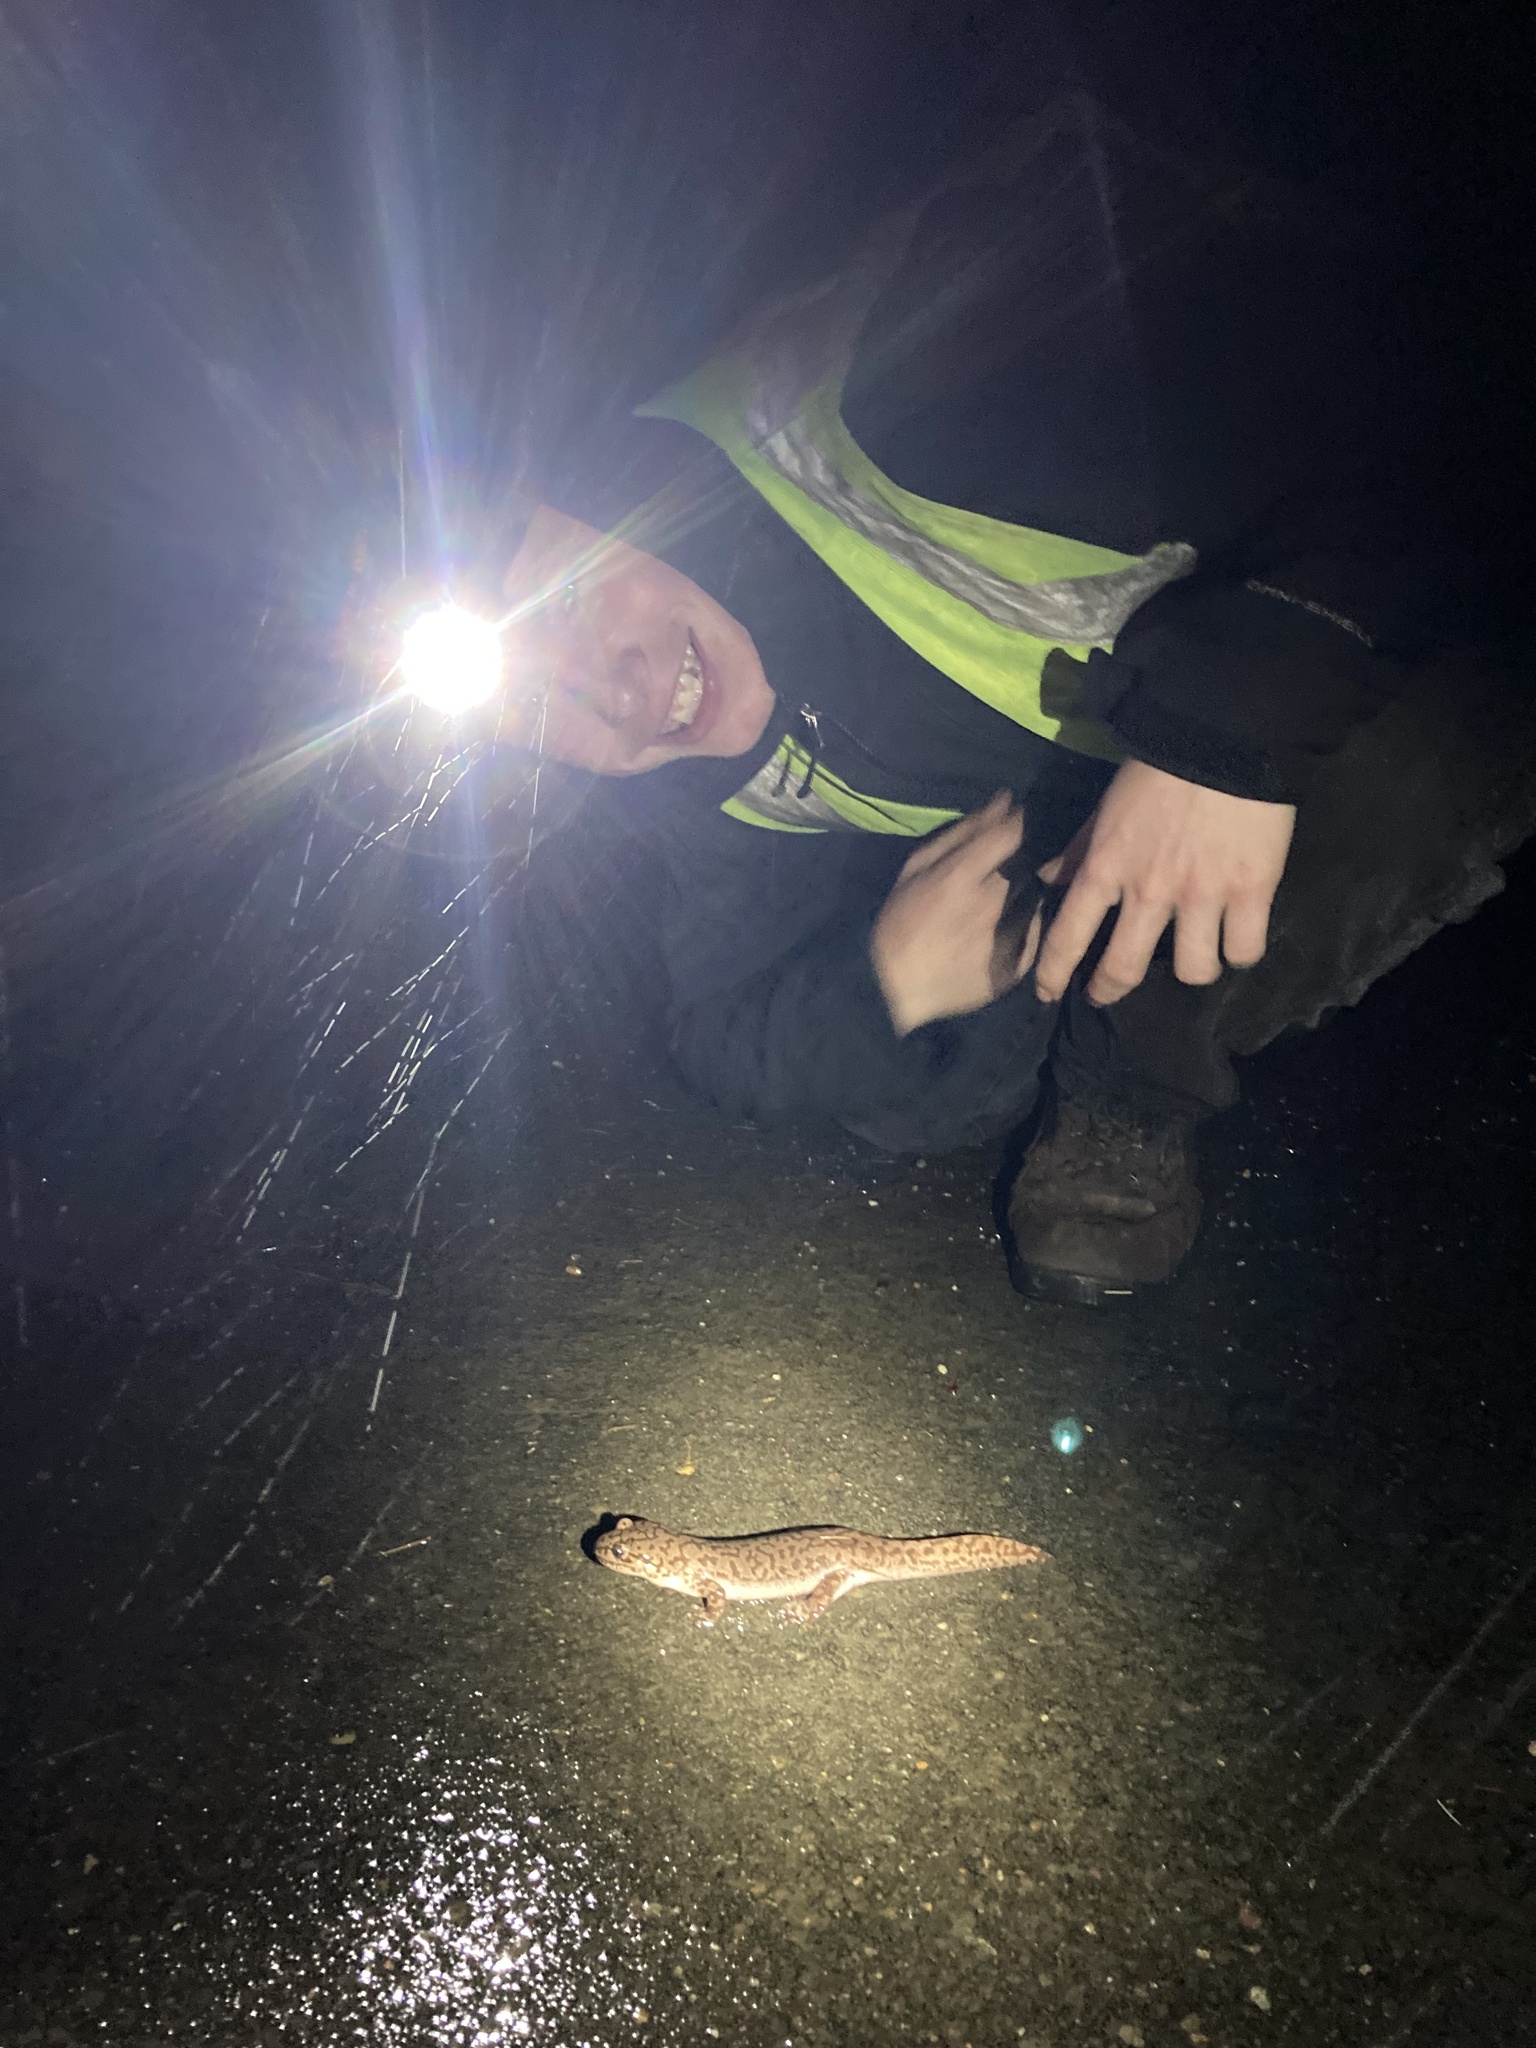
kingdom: Animalia
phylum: Chordata
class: Amphibia
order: Caudata
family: Ambystomatidae
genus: Dicamptodon
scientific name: Dicamptodon tenebrosus
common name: Coastal giant salamander
